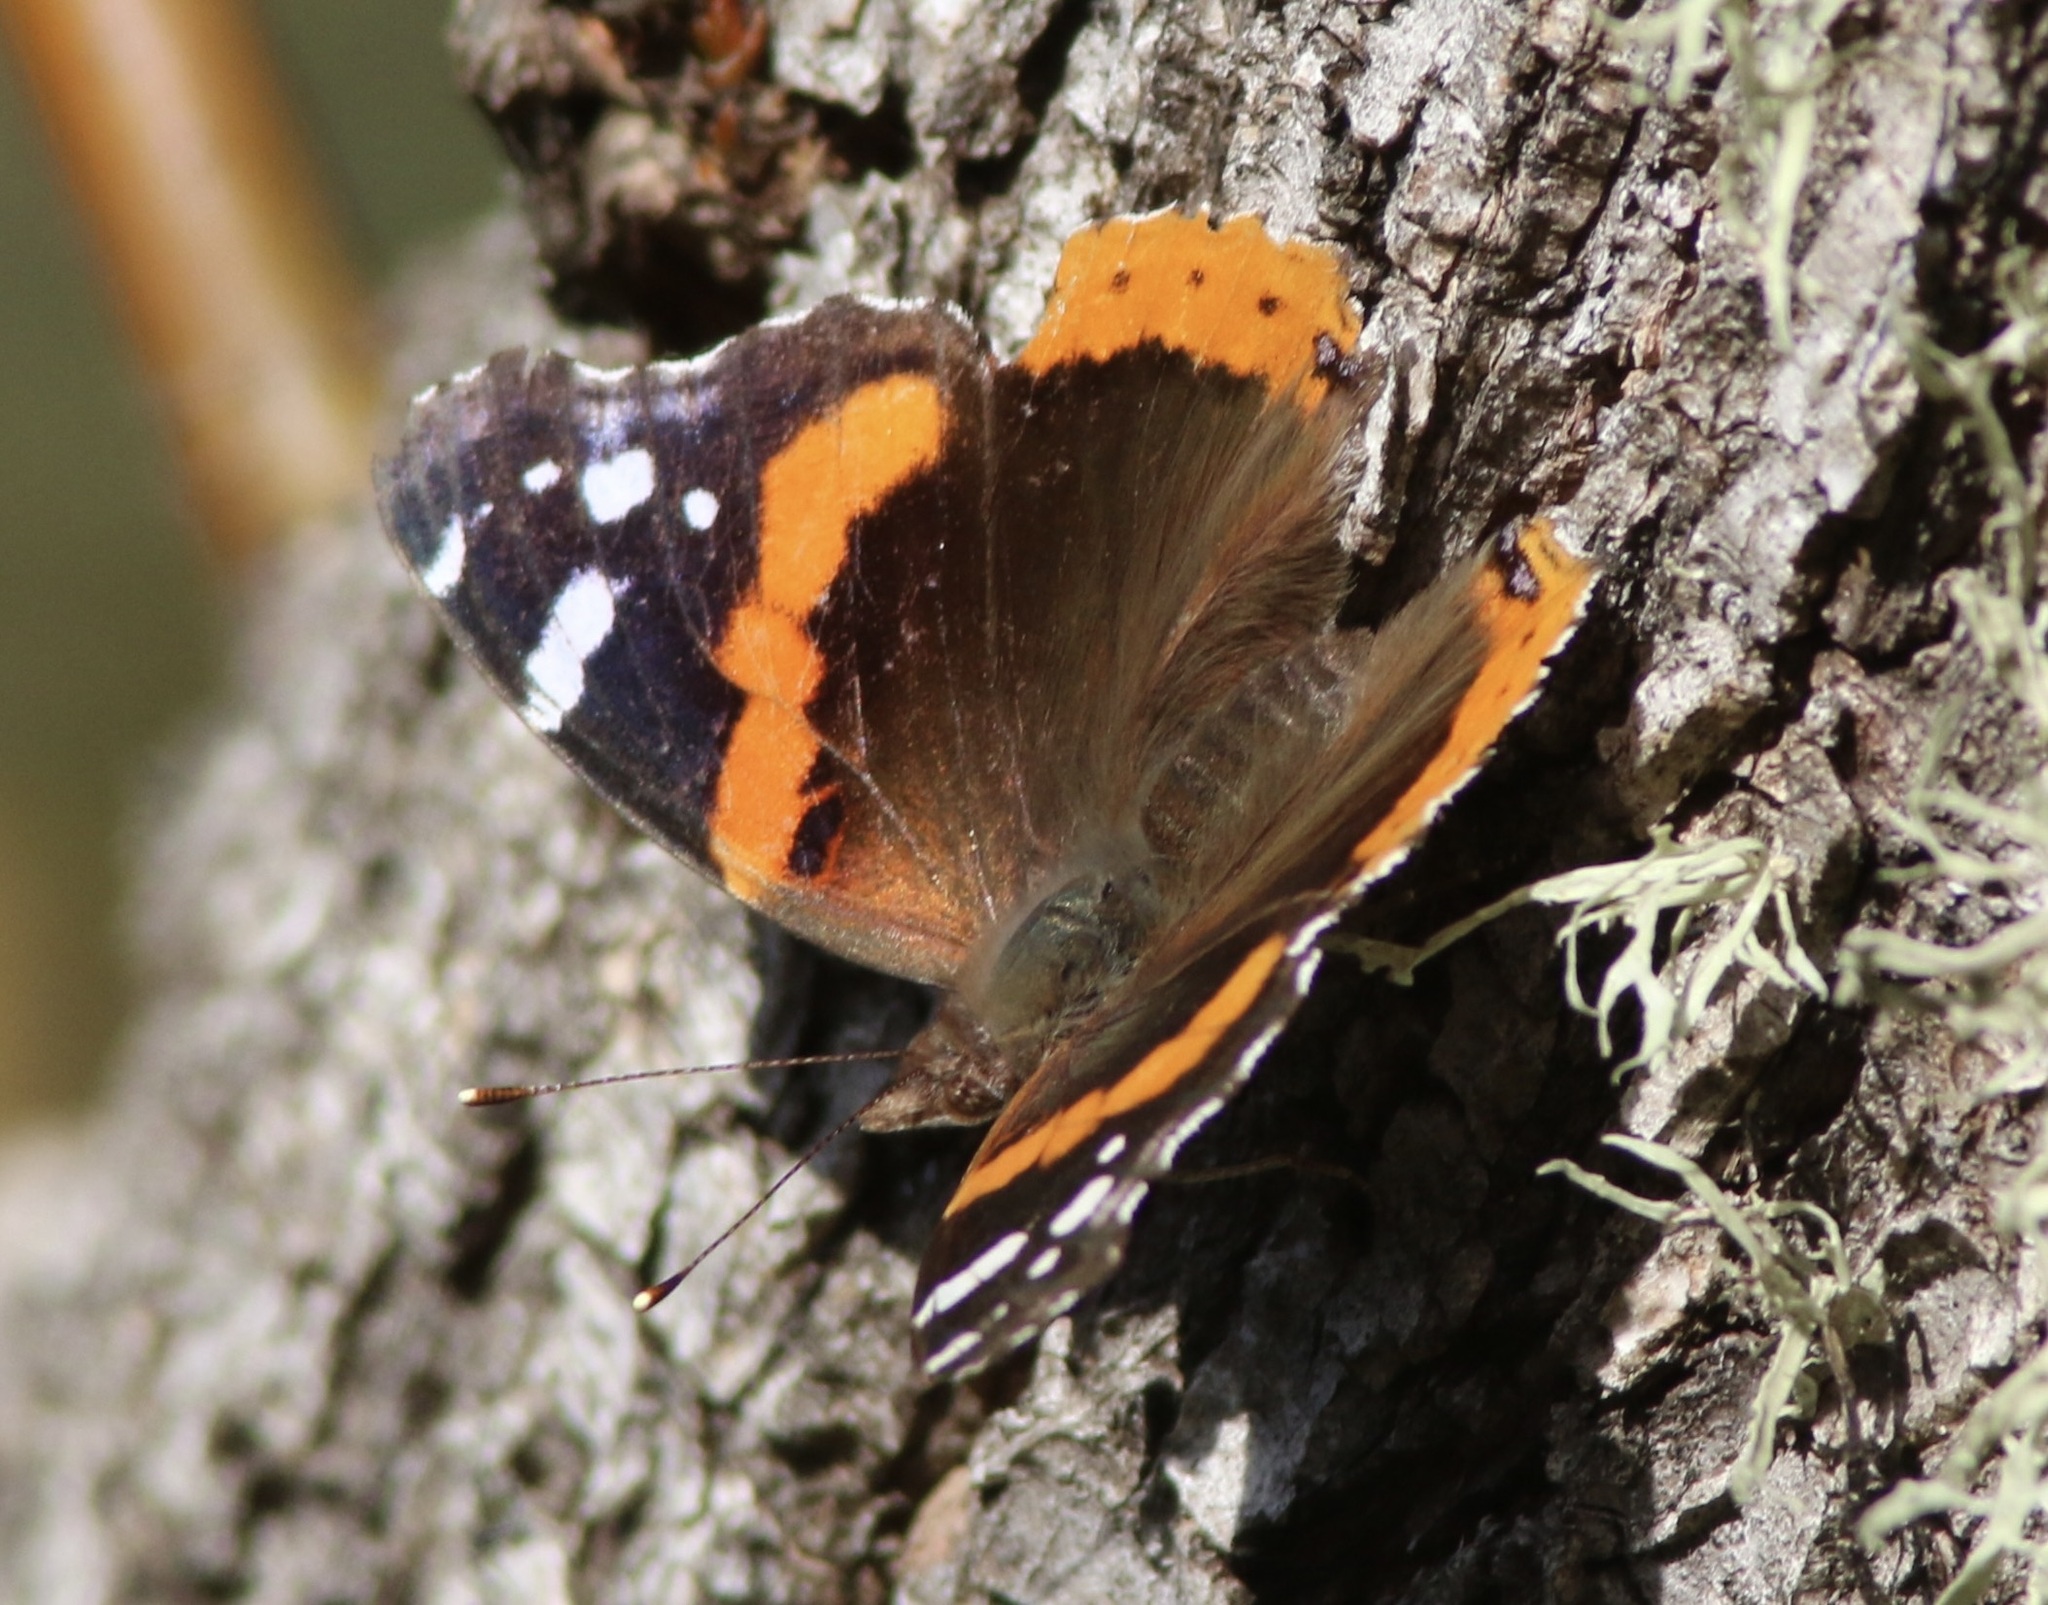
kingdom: Animalia
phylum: Arthropoda
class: Insecta
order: Lepidoptera
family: Nymphalidae
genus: Vanessa
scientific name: Vanessa atalanta
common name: Red admiral
